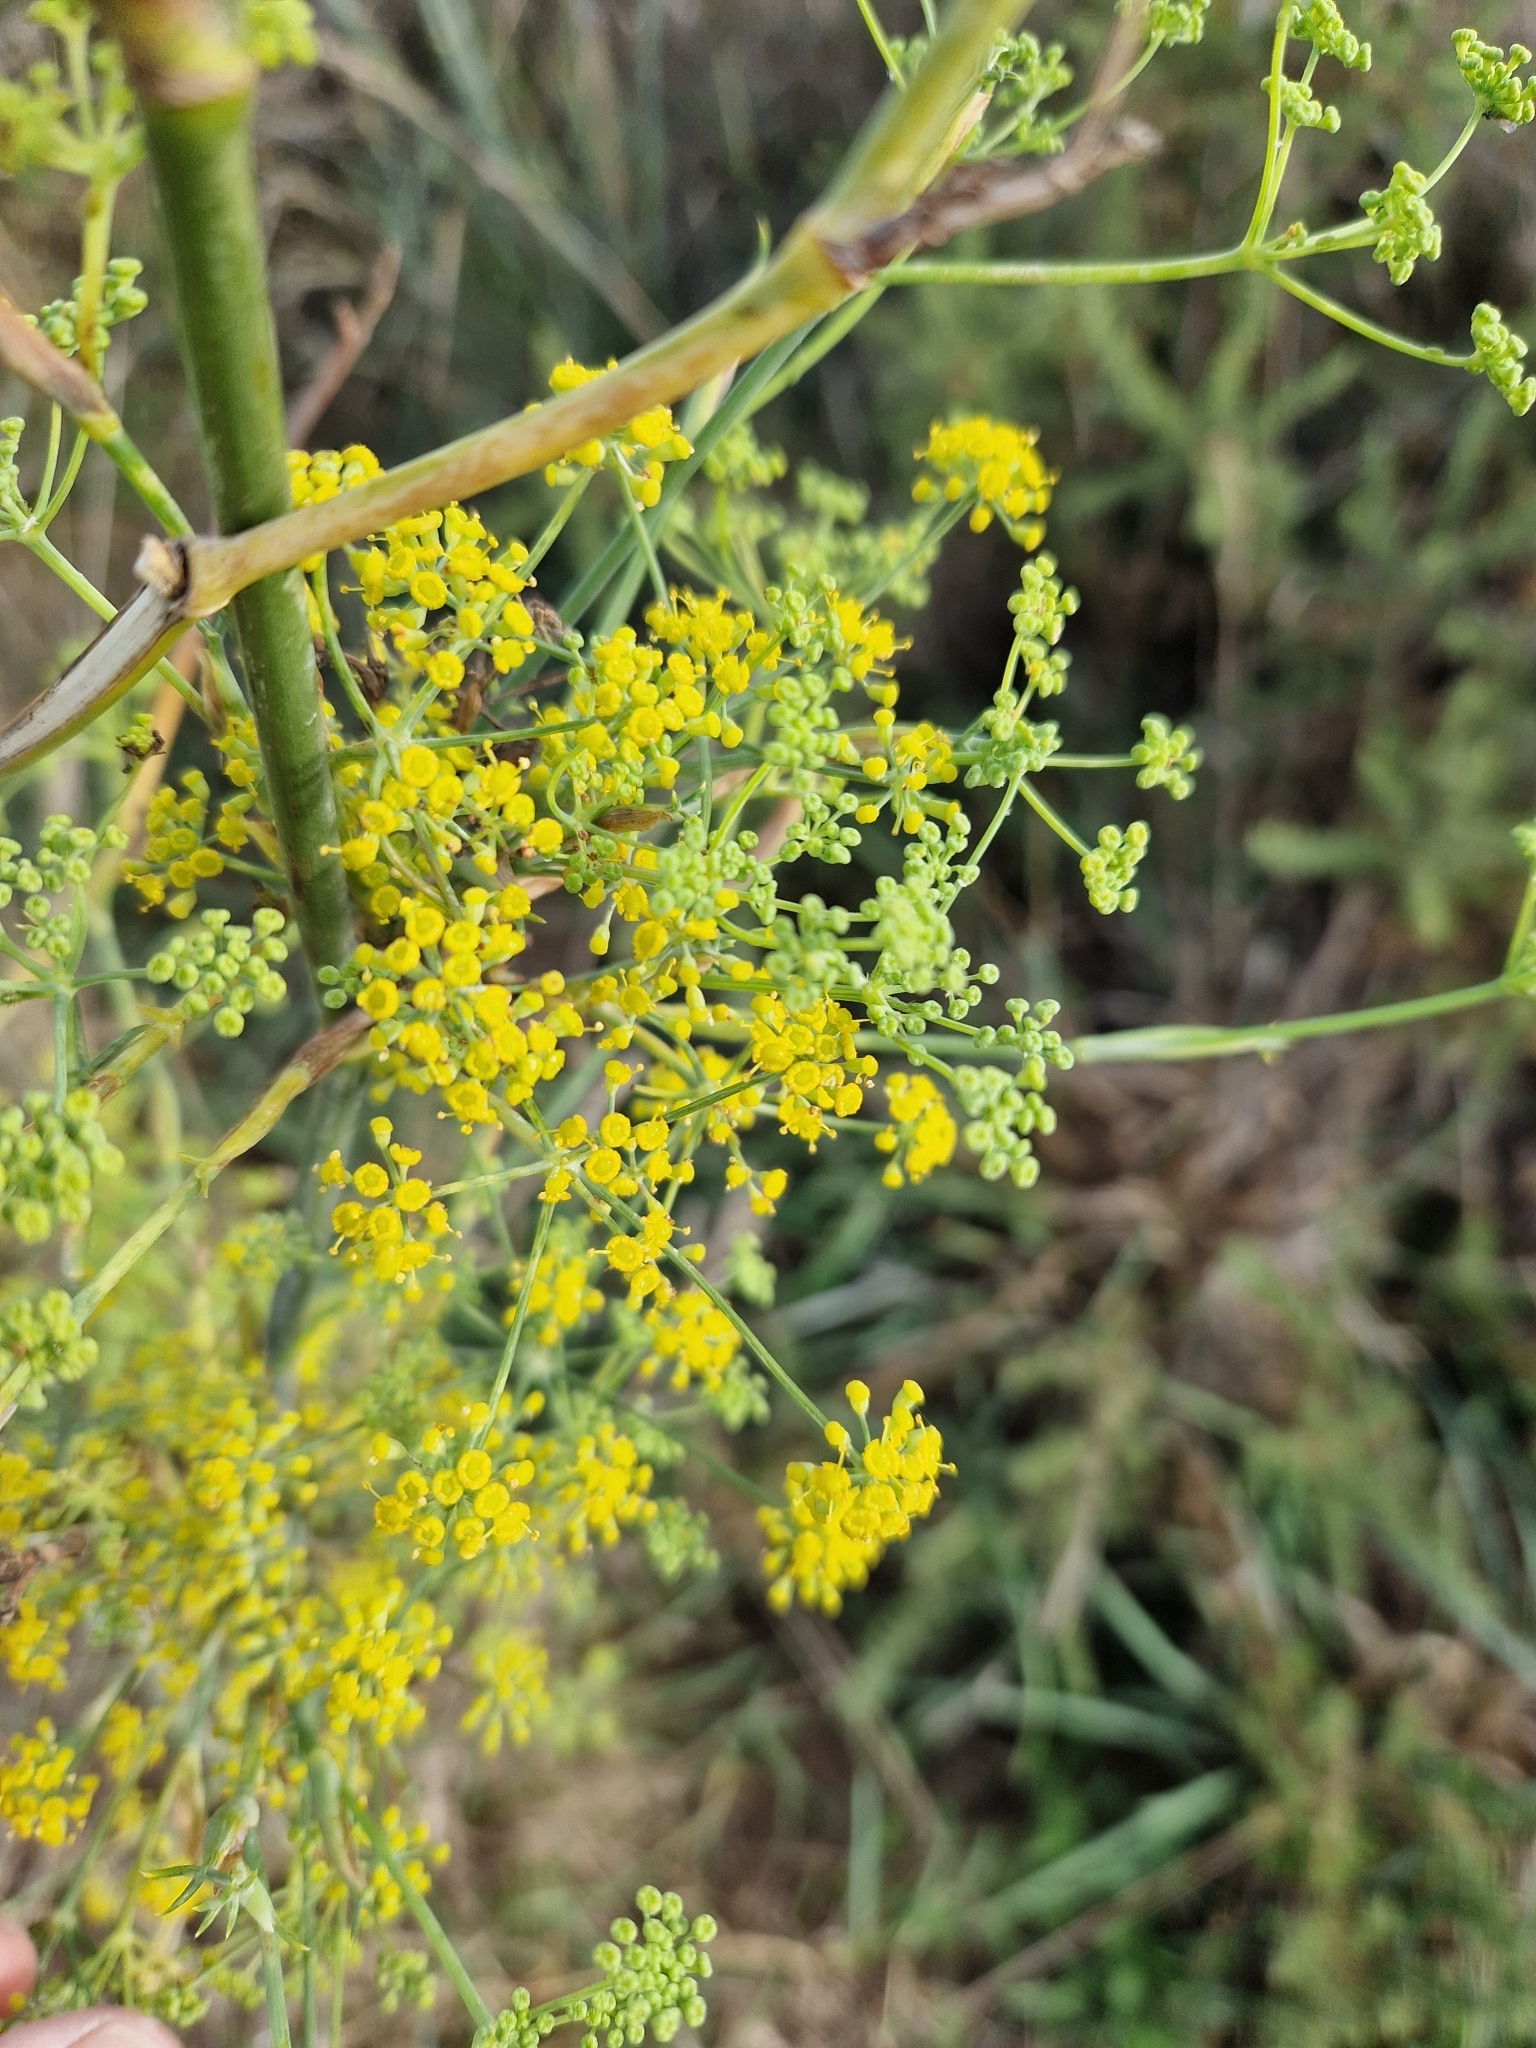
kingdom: Plantae
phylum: Tracheophyta
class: Magnoliopsida
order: Apiales
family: Apiaceae
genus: Foeniculum
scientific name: Foeniculum vulgare
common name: Fennel
